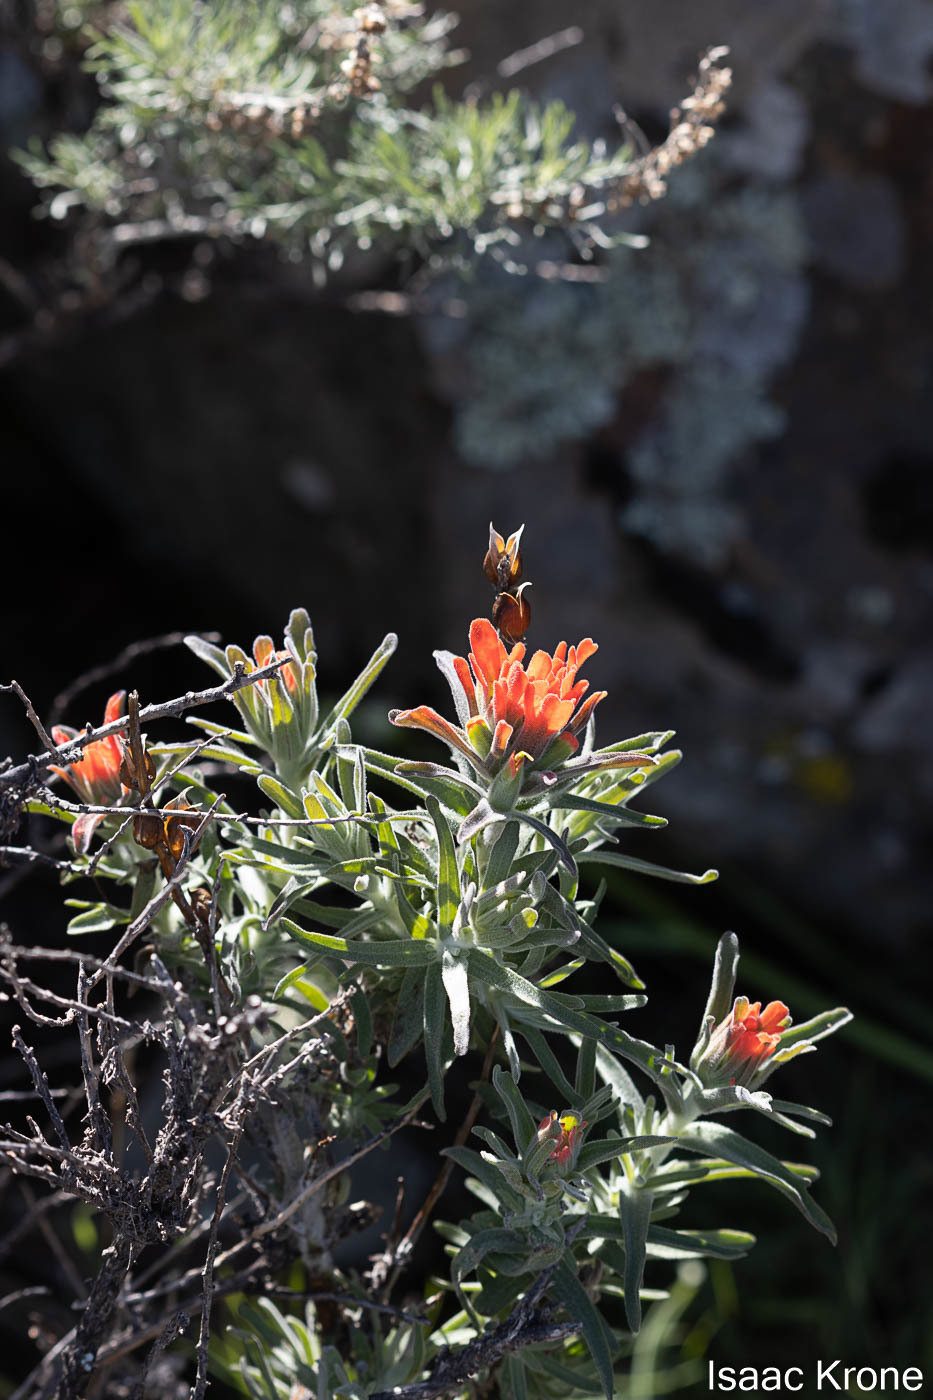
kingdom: Plantae
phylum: Tracheophyta
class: Magnoliopsida
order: Lamiales
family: Orobanchaceae
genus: Castilleja
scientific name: Castilleja foliolosa
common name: Woolly indian paintbrush
